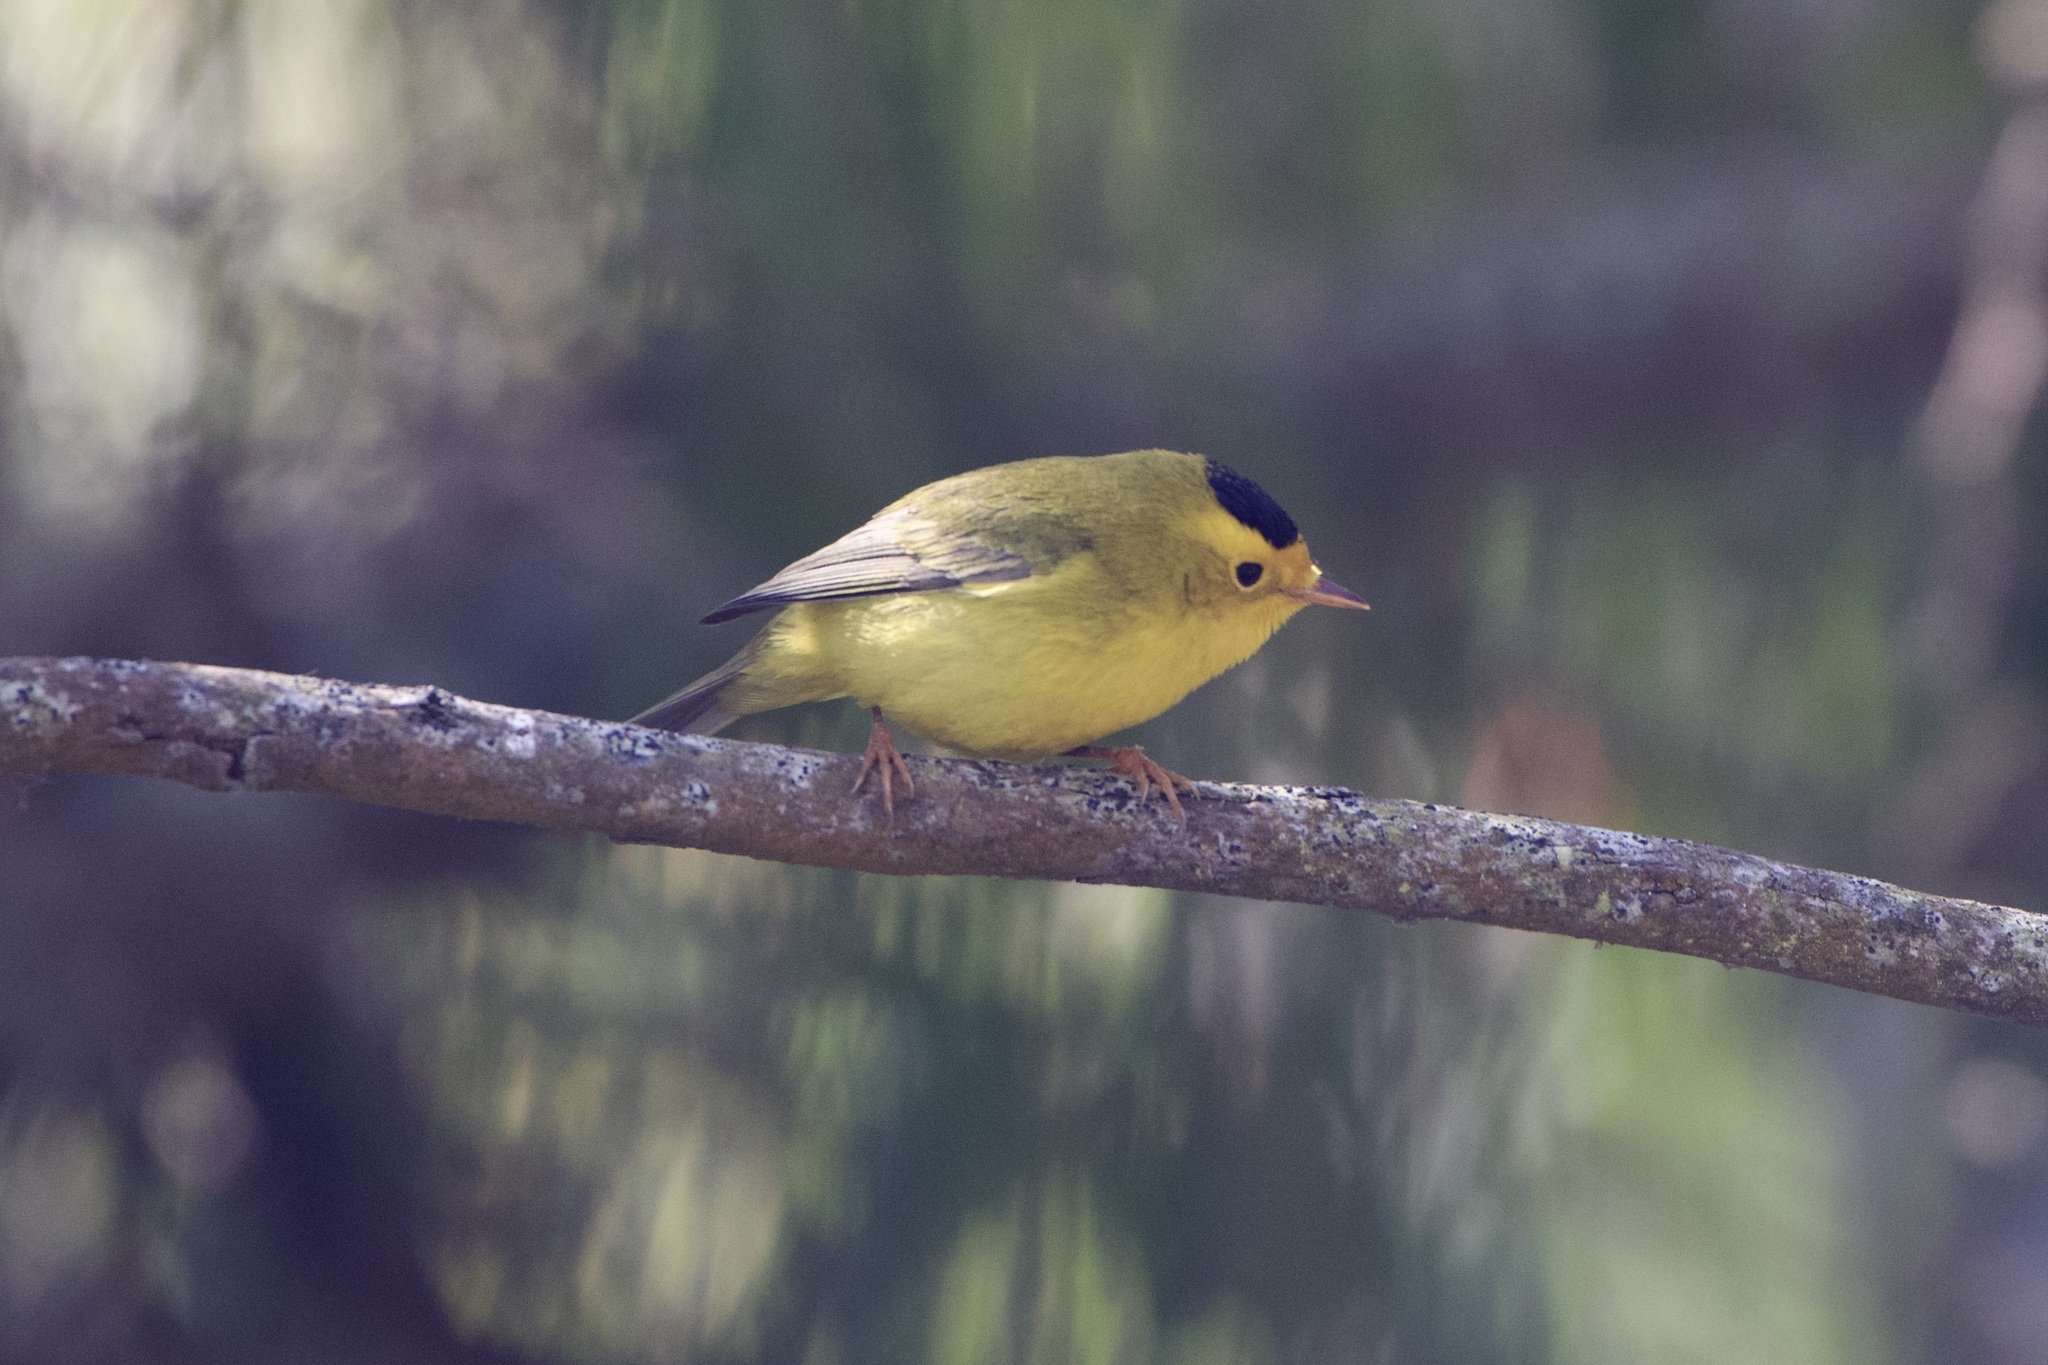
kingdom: Animalia
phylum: Chordata
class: Aves
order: Passeriformes
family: Parulidae
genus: Cardellina
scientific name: Cardellina pusilla
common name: Wilson's warbler
